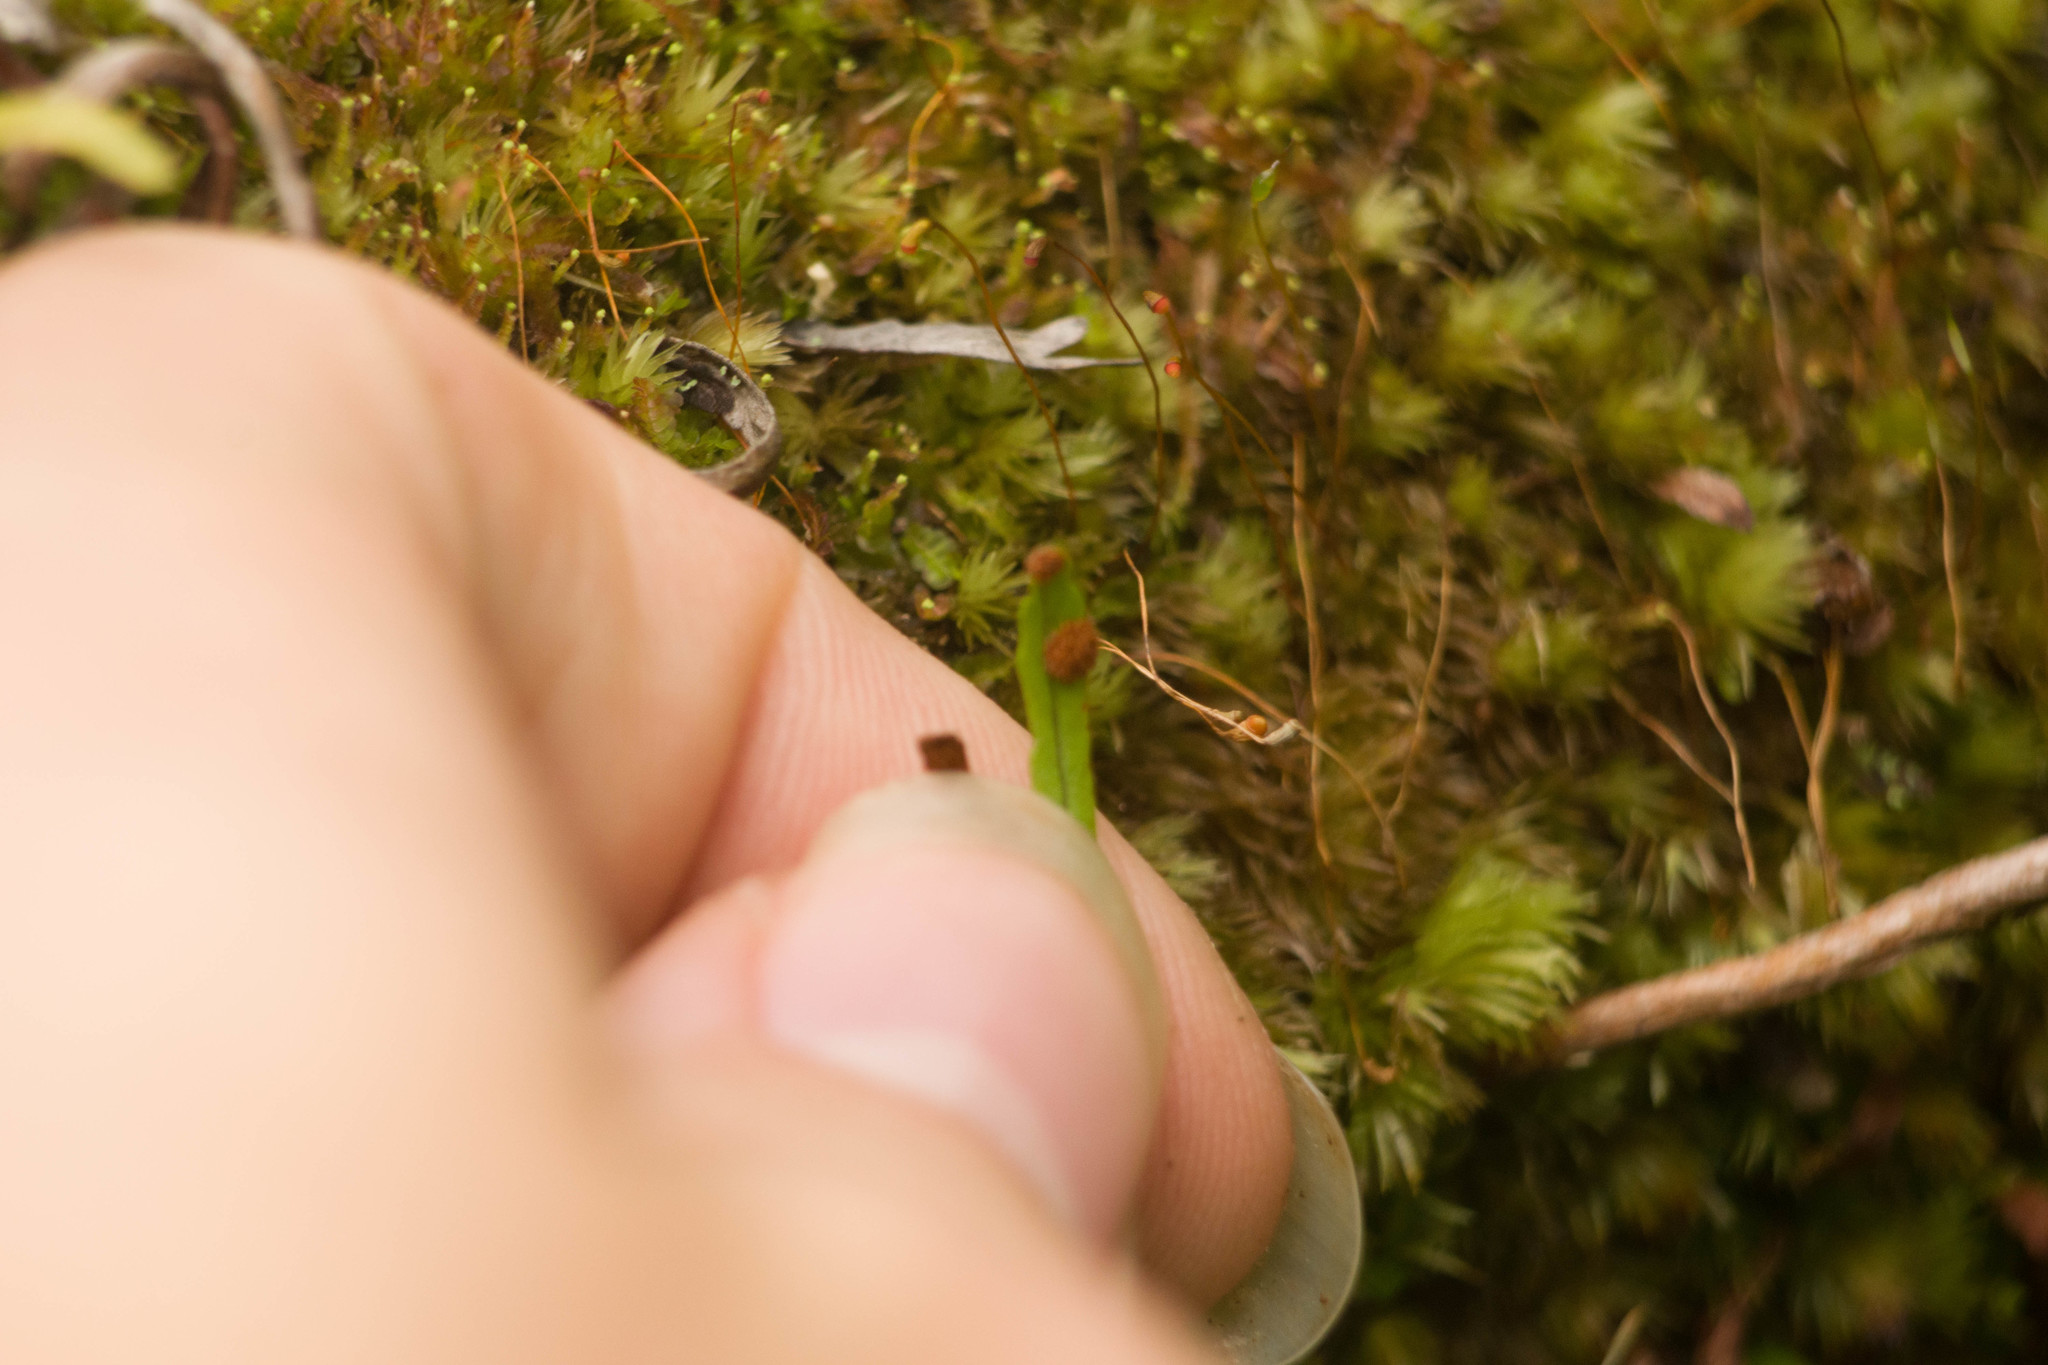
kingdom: Plantae
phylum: Tracheophyta
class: Polypodiopsida
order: Polypodiales
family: Polypodiaceae
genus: Adenophorus
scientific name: Adenophorus tenellus
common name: Kolokolo
